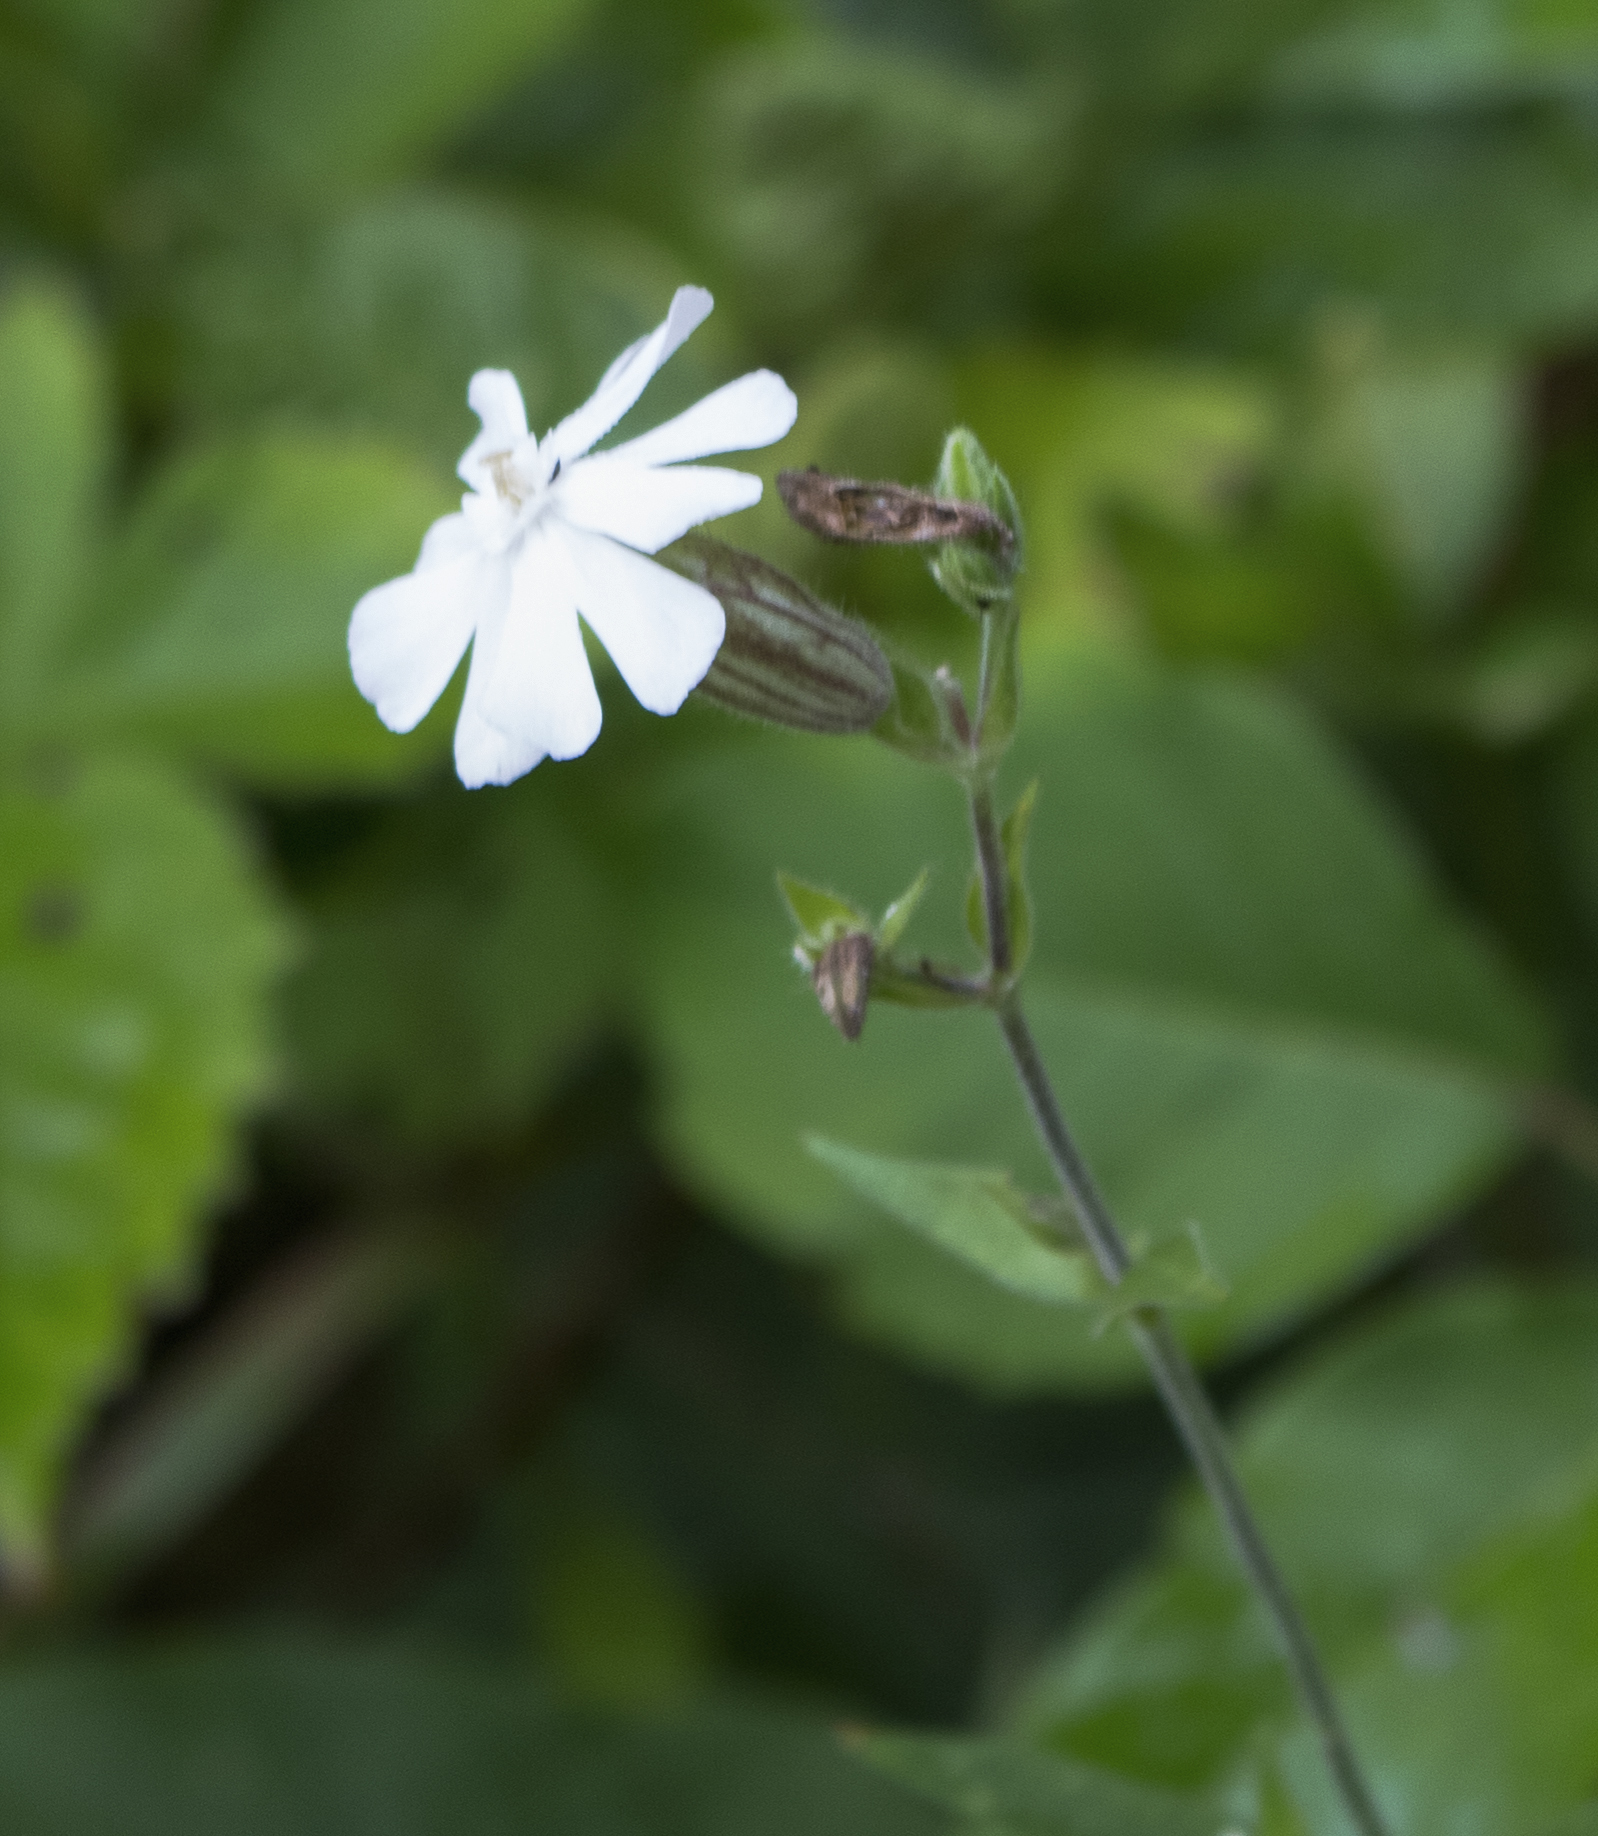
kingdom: Plantae
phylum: Tracheophyta
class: Magnoliopsida
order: Caryophyllales
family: Caryophyllaceae
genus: Silene
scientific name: Silene latifolia
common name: White campion
